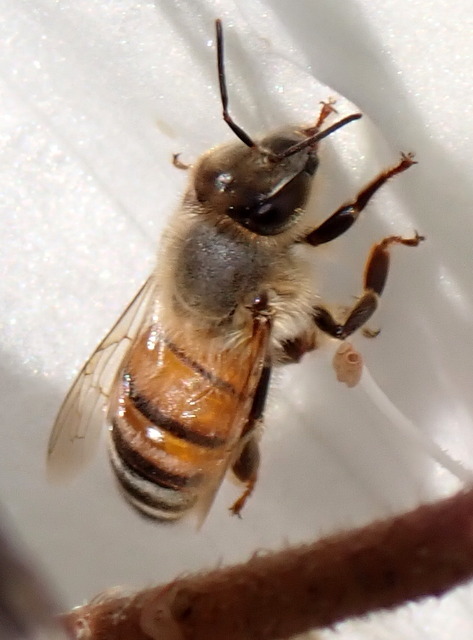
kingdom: Animalia
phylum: Arthropoda
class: Insecta
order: Hymenoptera
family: Apidae
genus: Apis
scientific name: Apis mellifera
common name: Honey bee
